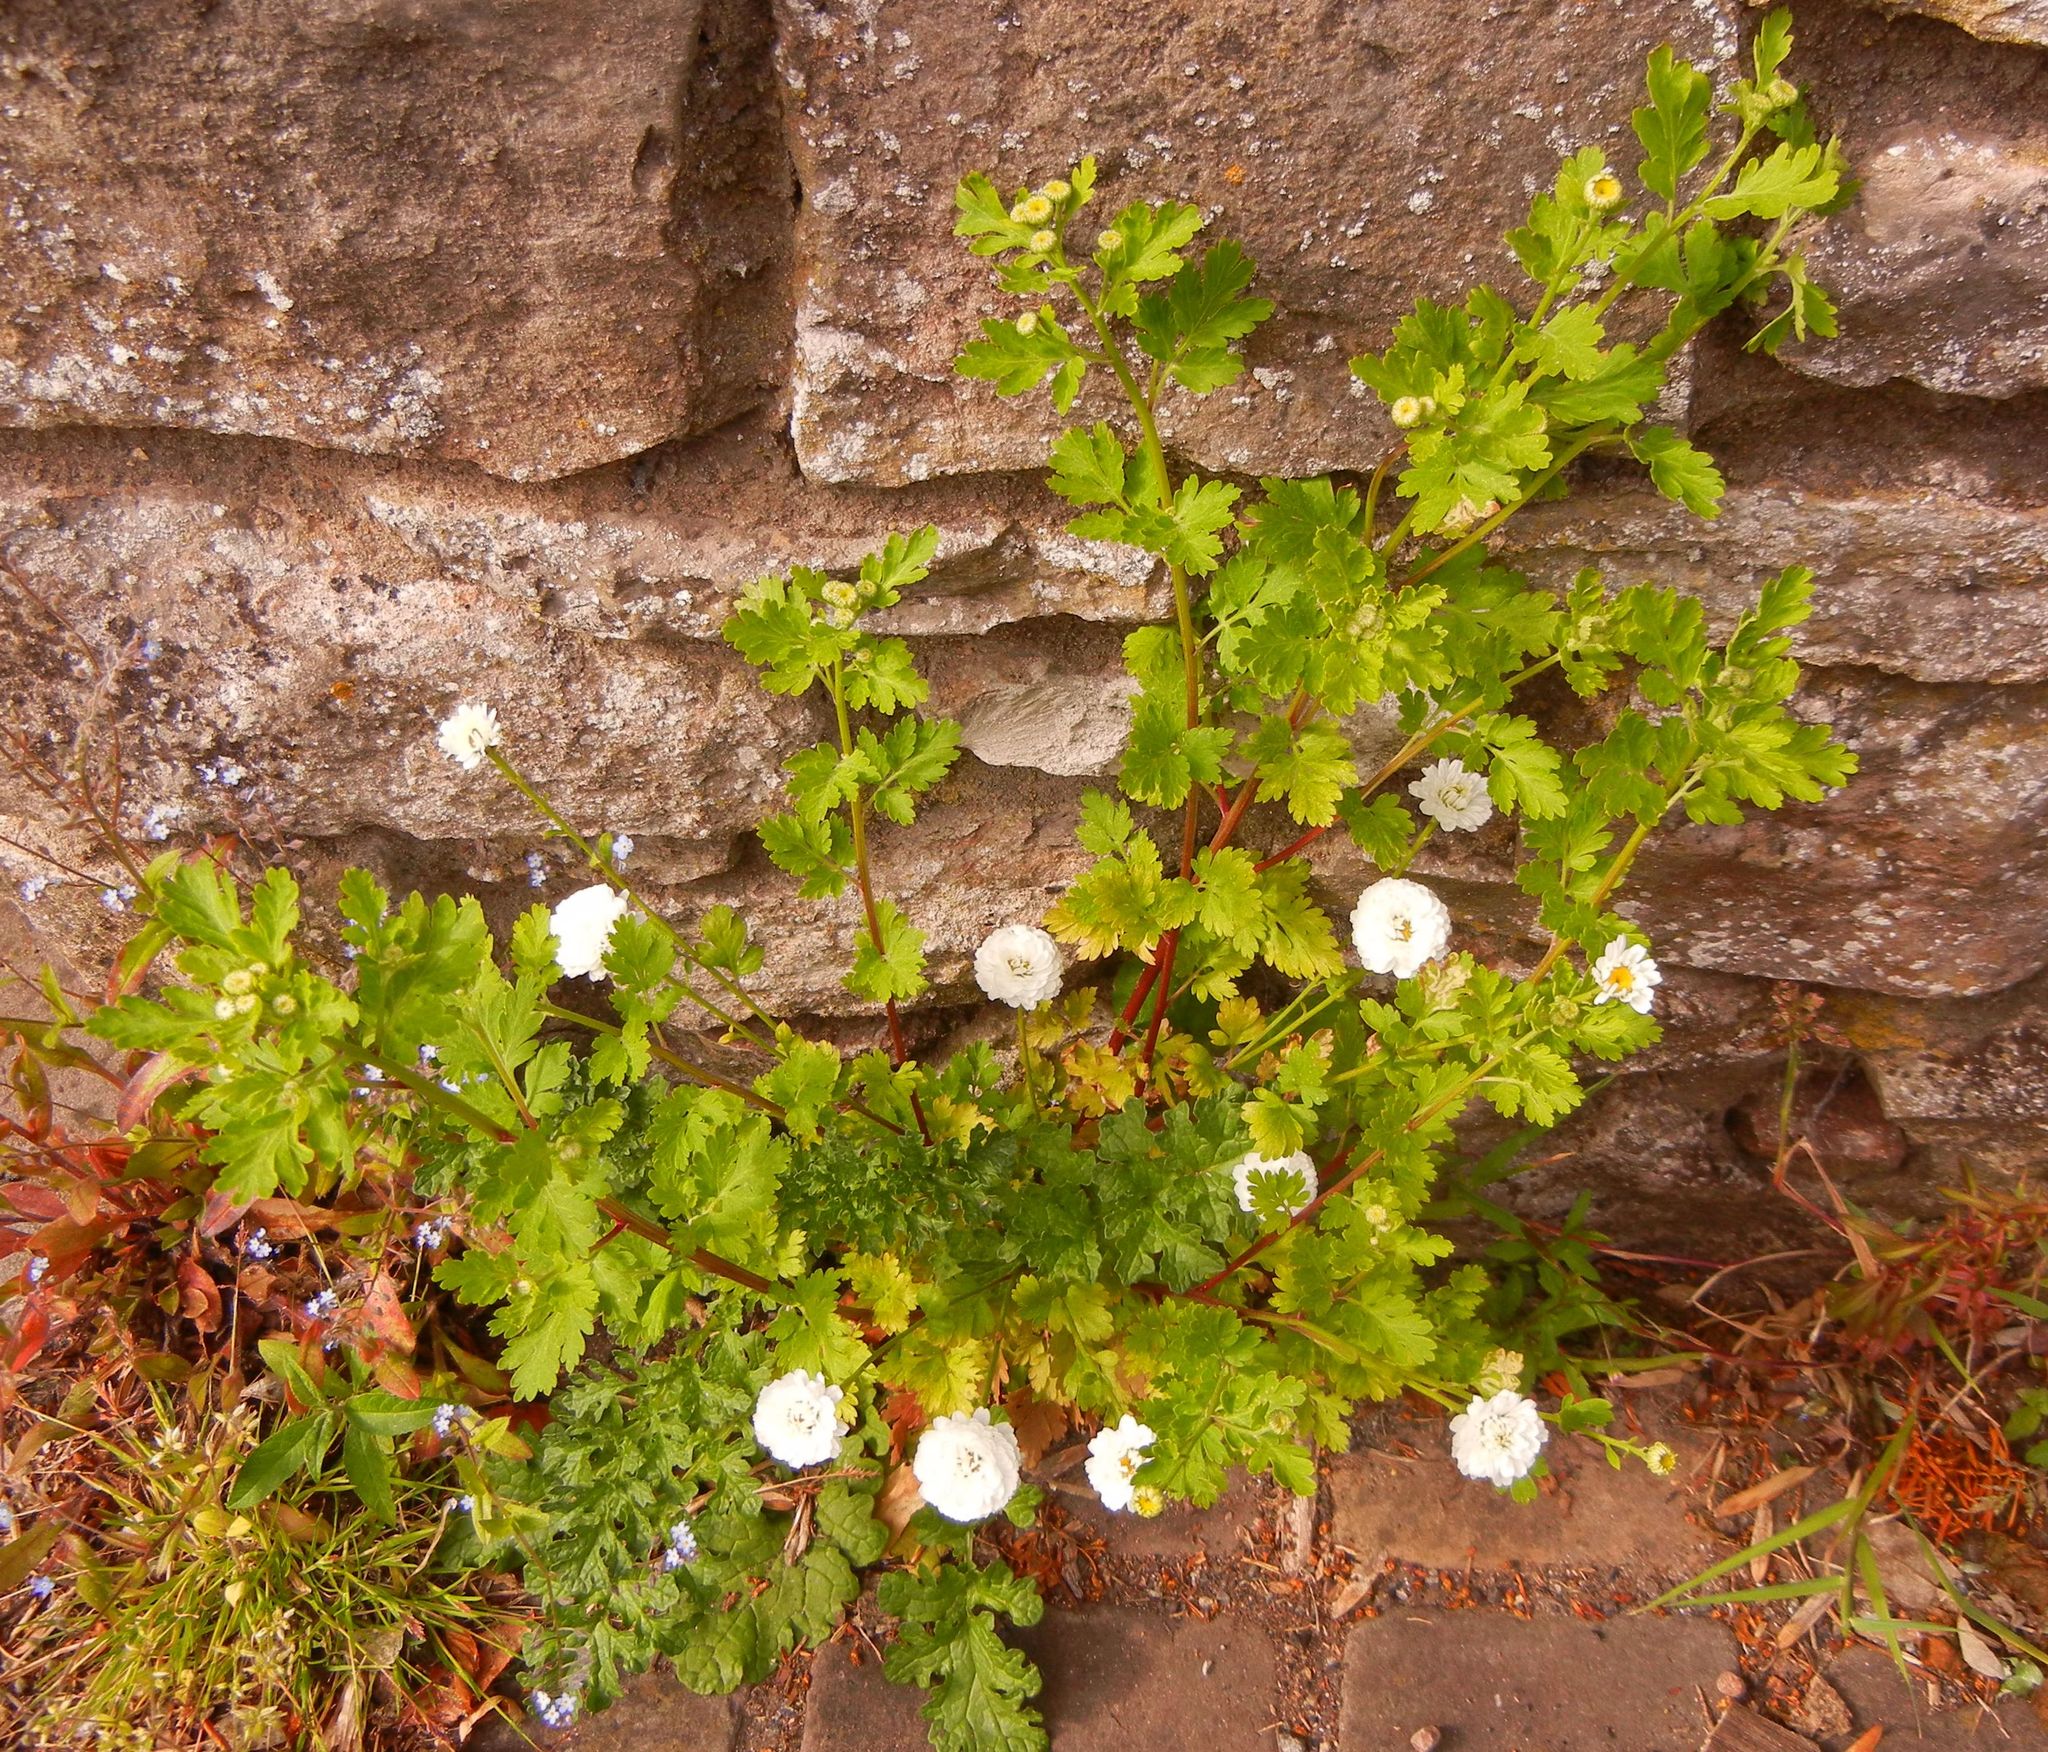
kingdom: Plantae
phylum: Tracheophyta
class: Magnoliopsida
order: Asterales
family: Asteraceae
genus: Tanacetum
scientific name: Tanacetum parthenium
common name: Feverfew
